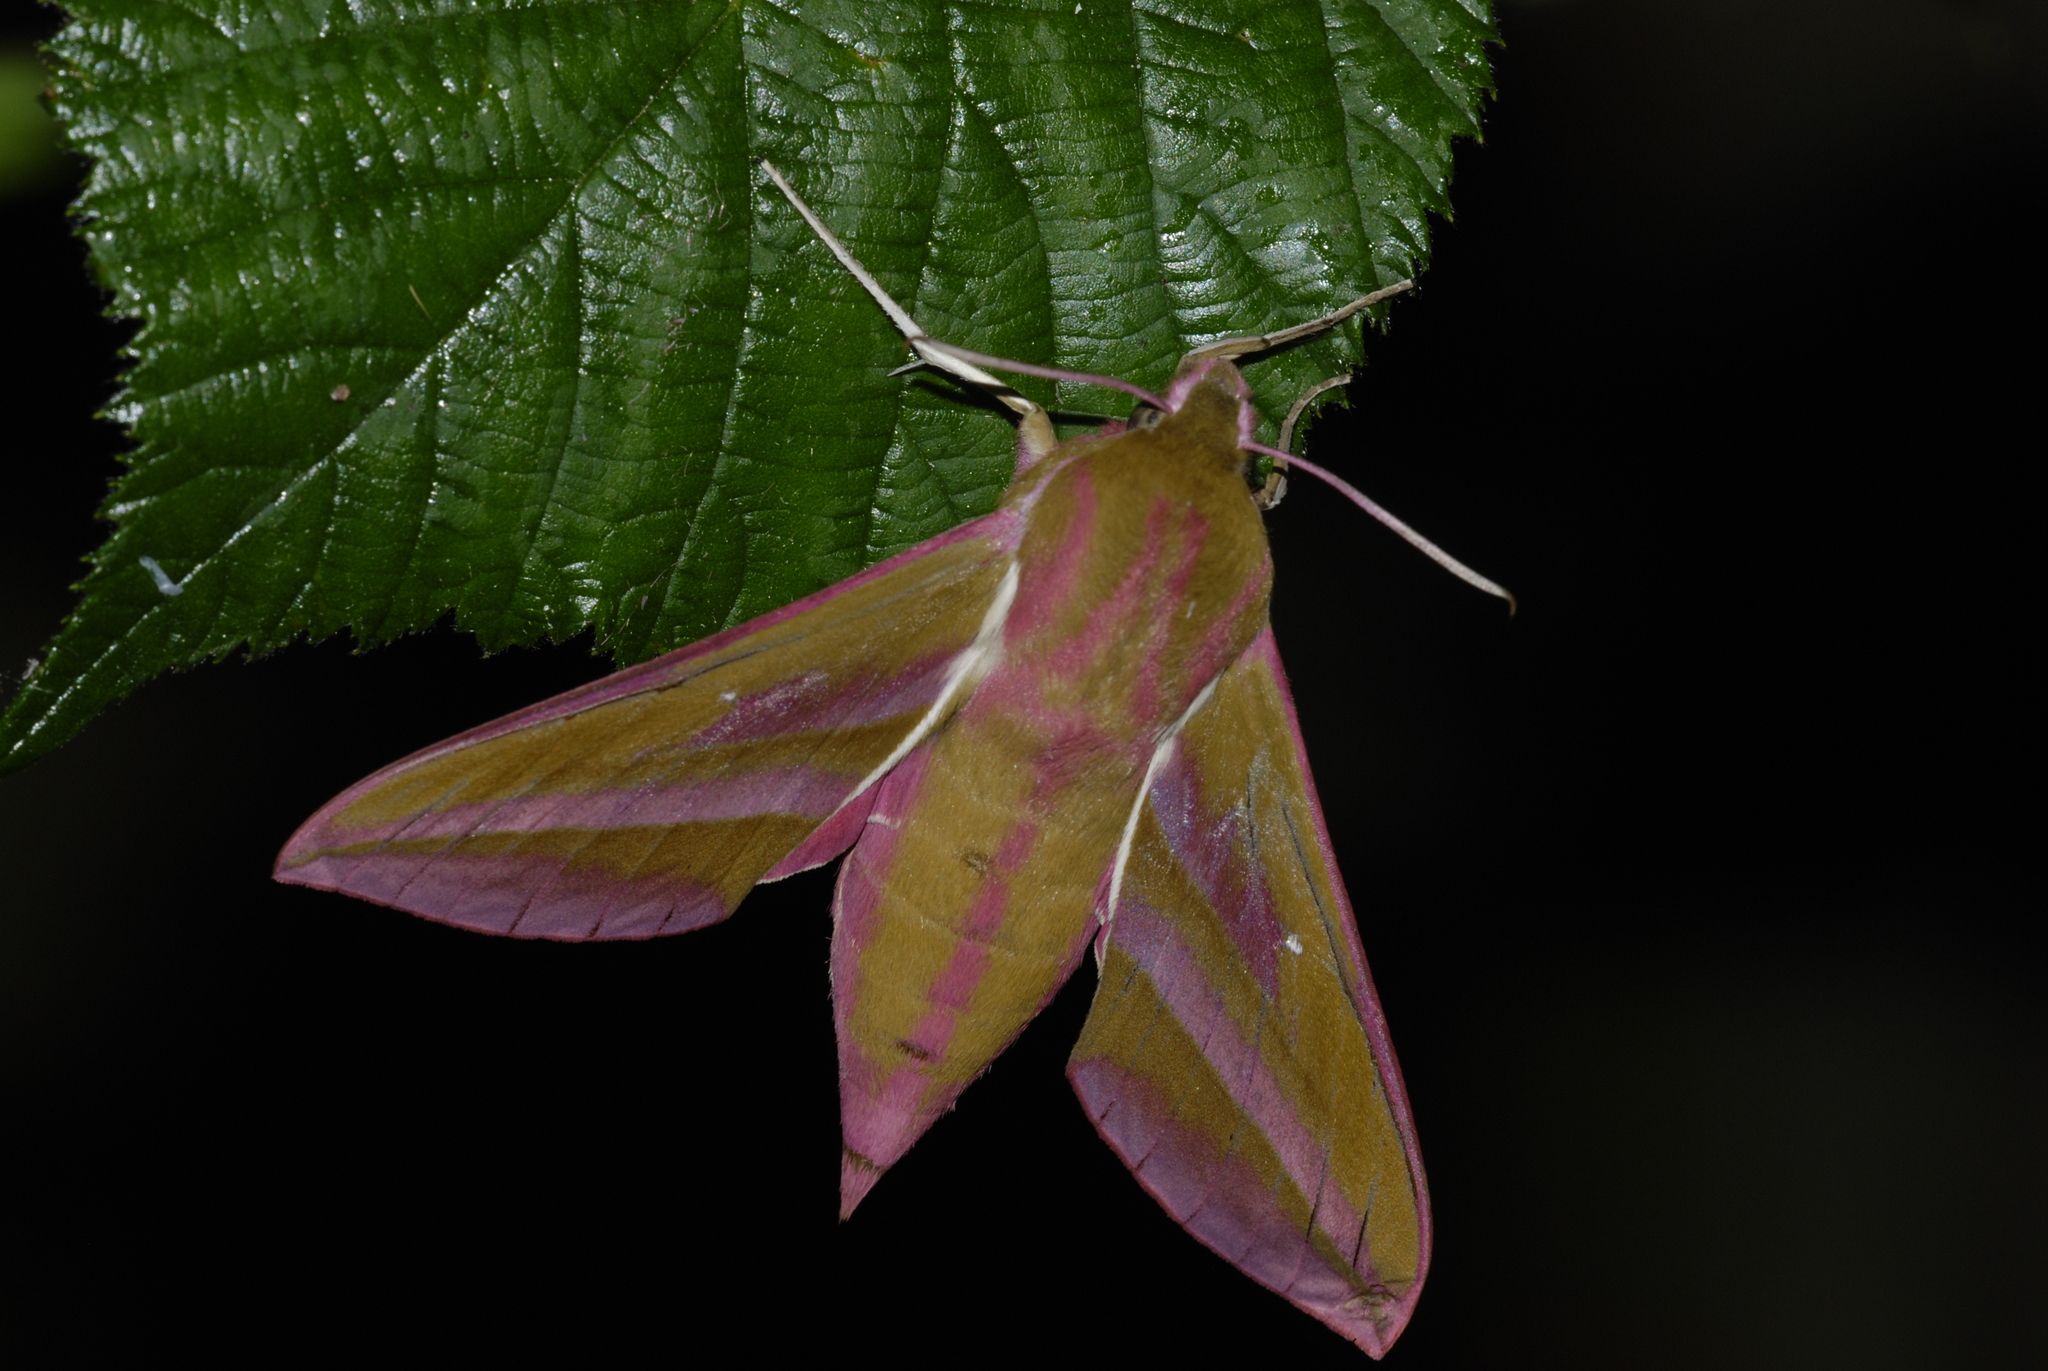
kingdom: Animalia
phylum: Arthropoda
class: Insecta
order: Lepidoptera
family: Sphingidae
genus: Deilephila
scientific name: Deilephila elpenor
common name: Elephant hawk-moth
